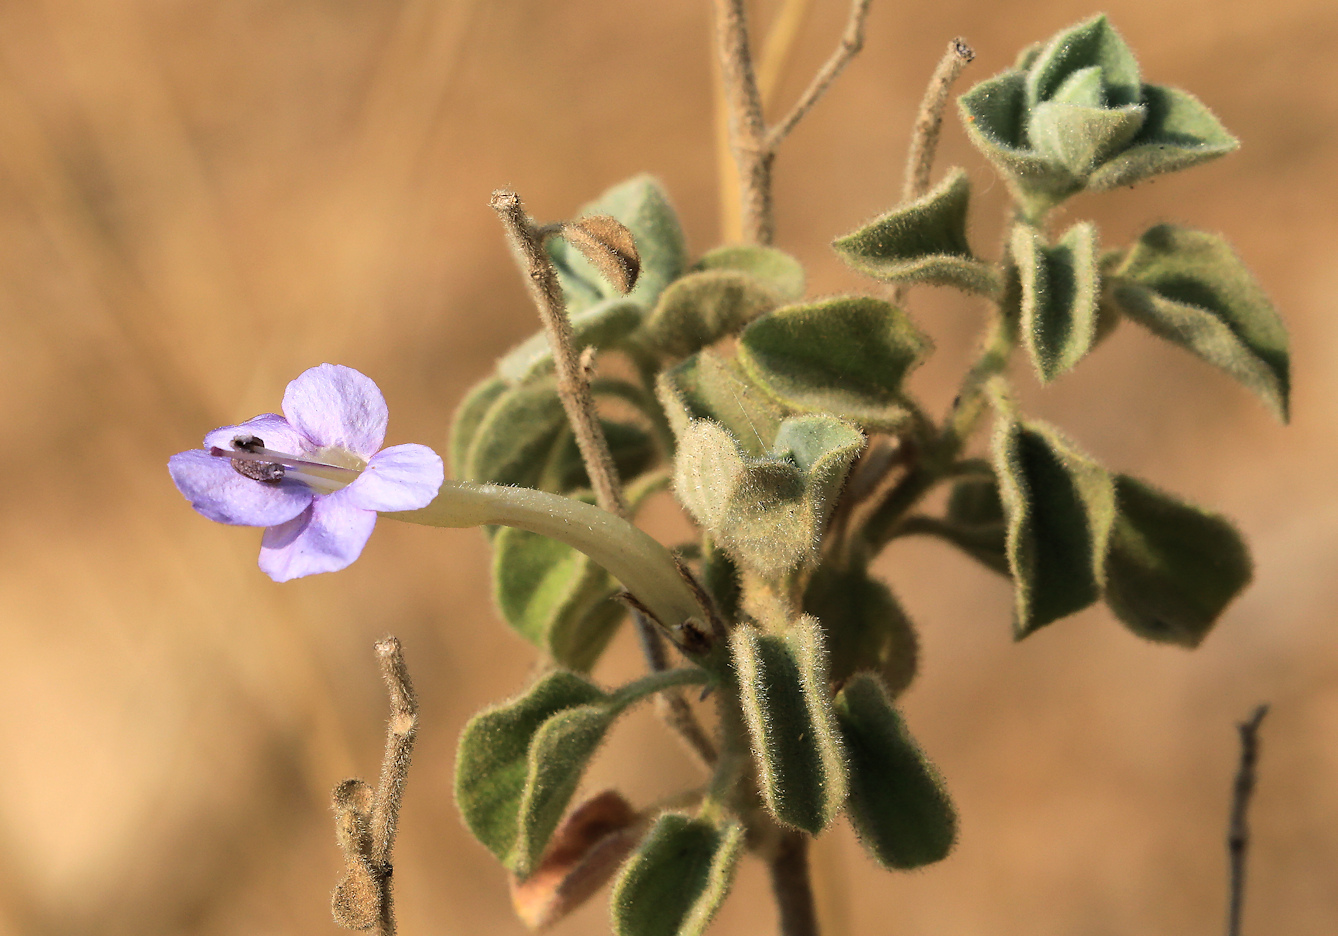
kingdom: Plantae
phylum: Tracheophyta
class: Magnoliopsida
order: Lamiales
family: Acanthaceae
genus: Barleria
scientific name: Barleria heterotricha
